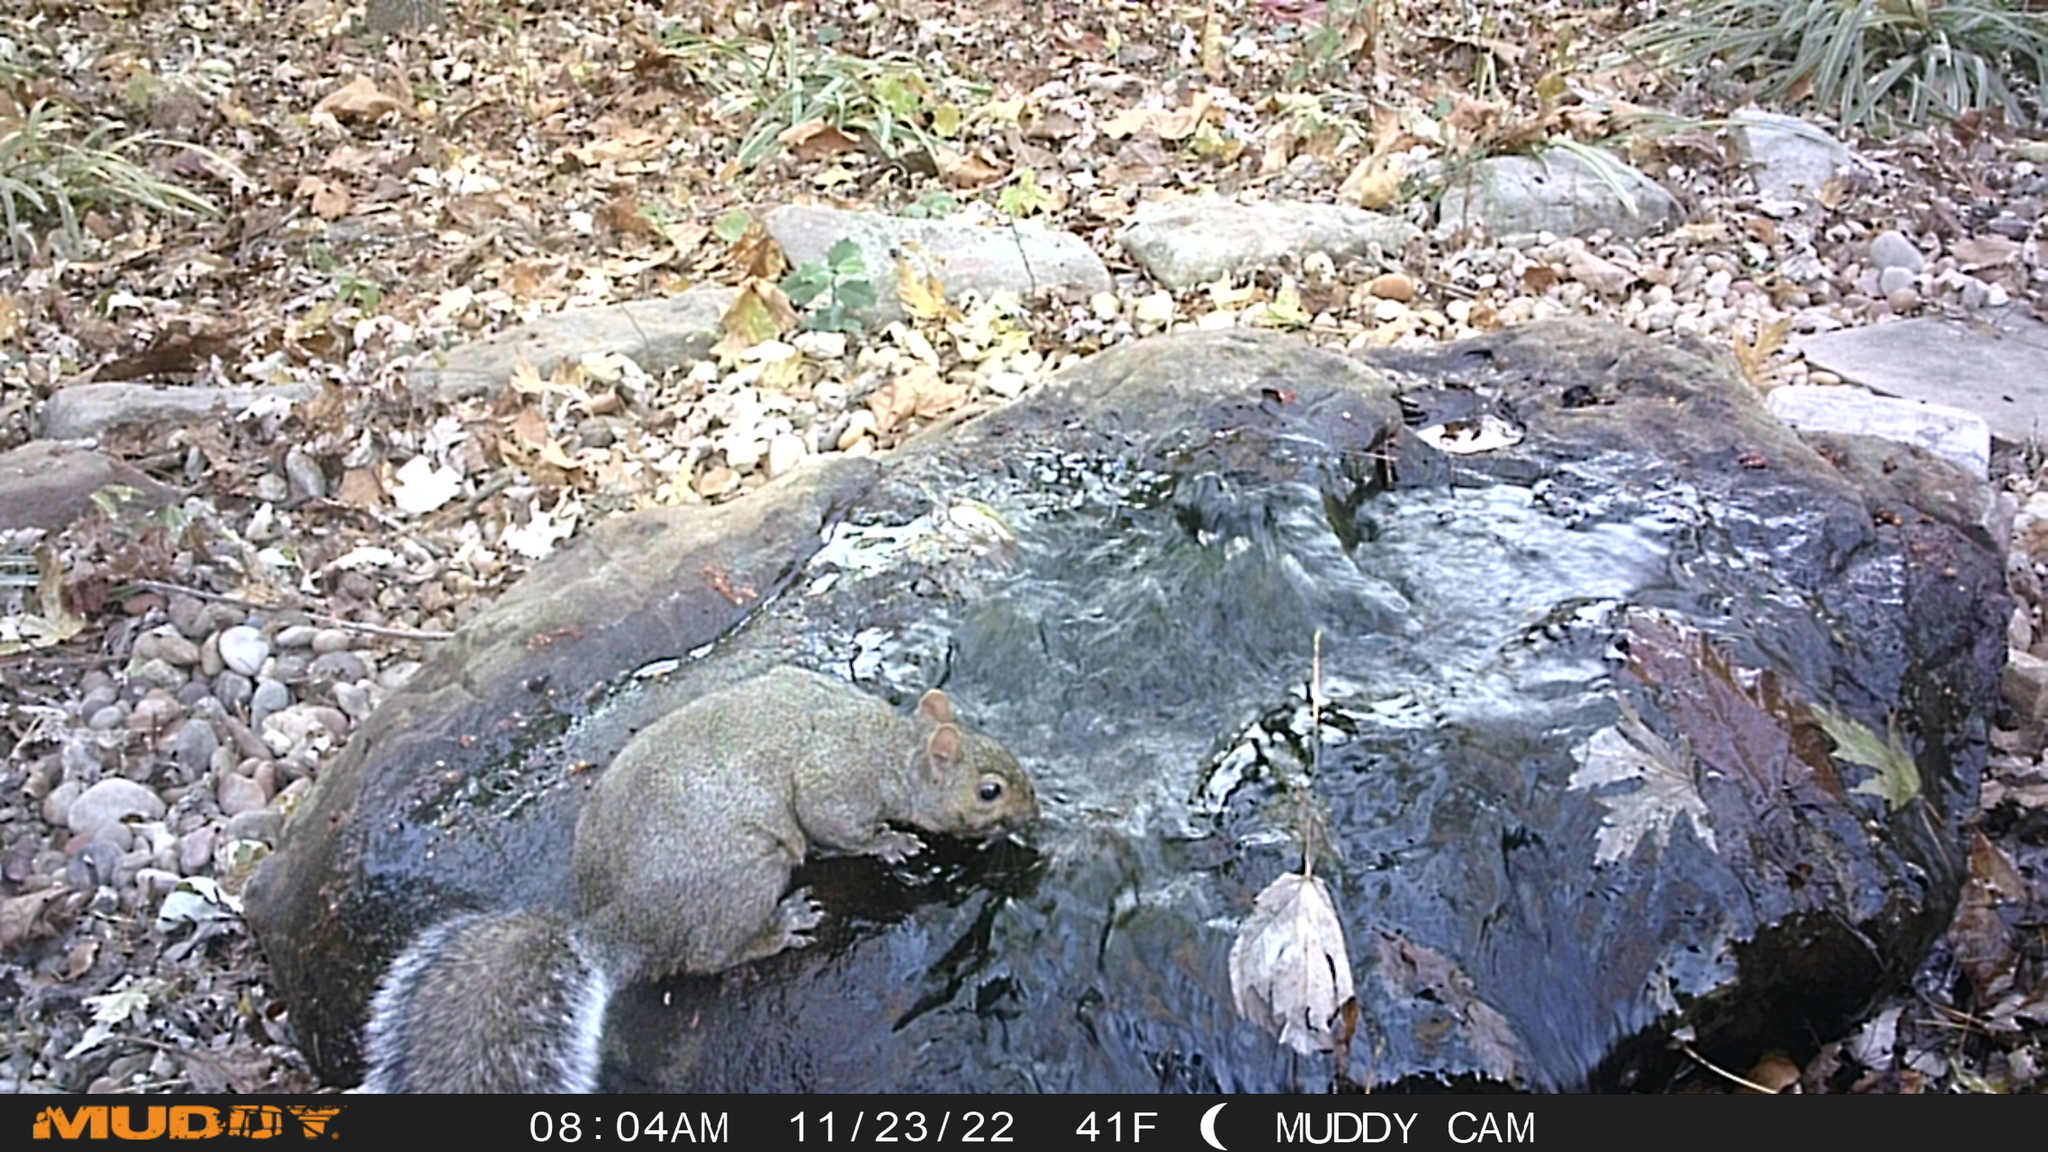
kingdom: Animalia
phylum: Chordata
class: Mammalia
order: Rodentia
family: Sciuridae
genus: Sciurus
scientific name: Sciurus carolinensis
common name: Eastern gray squirrel
